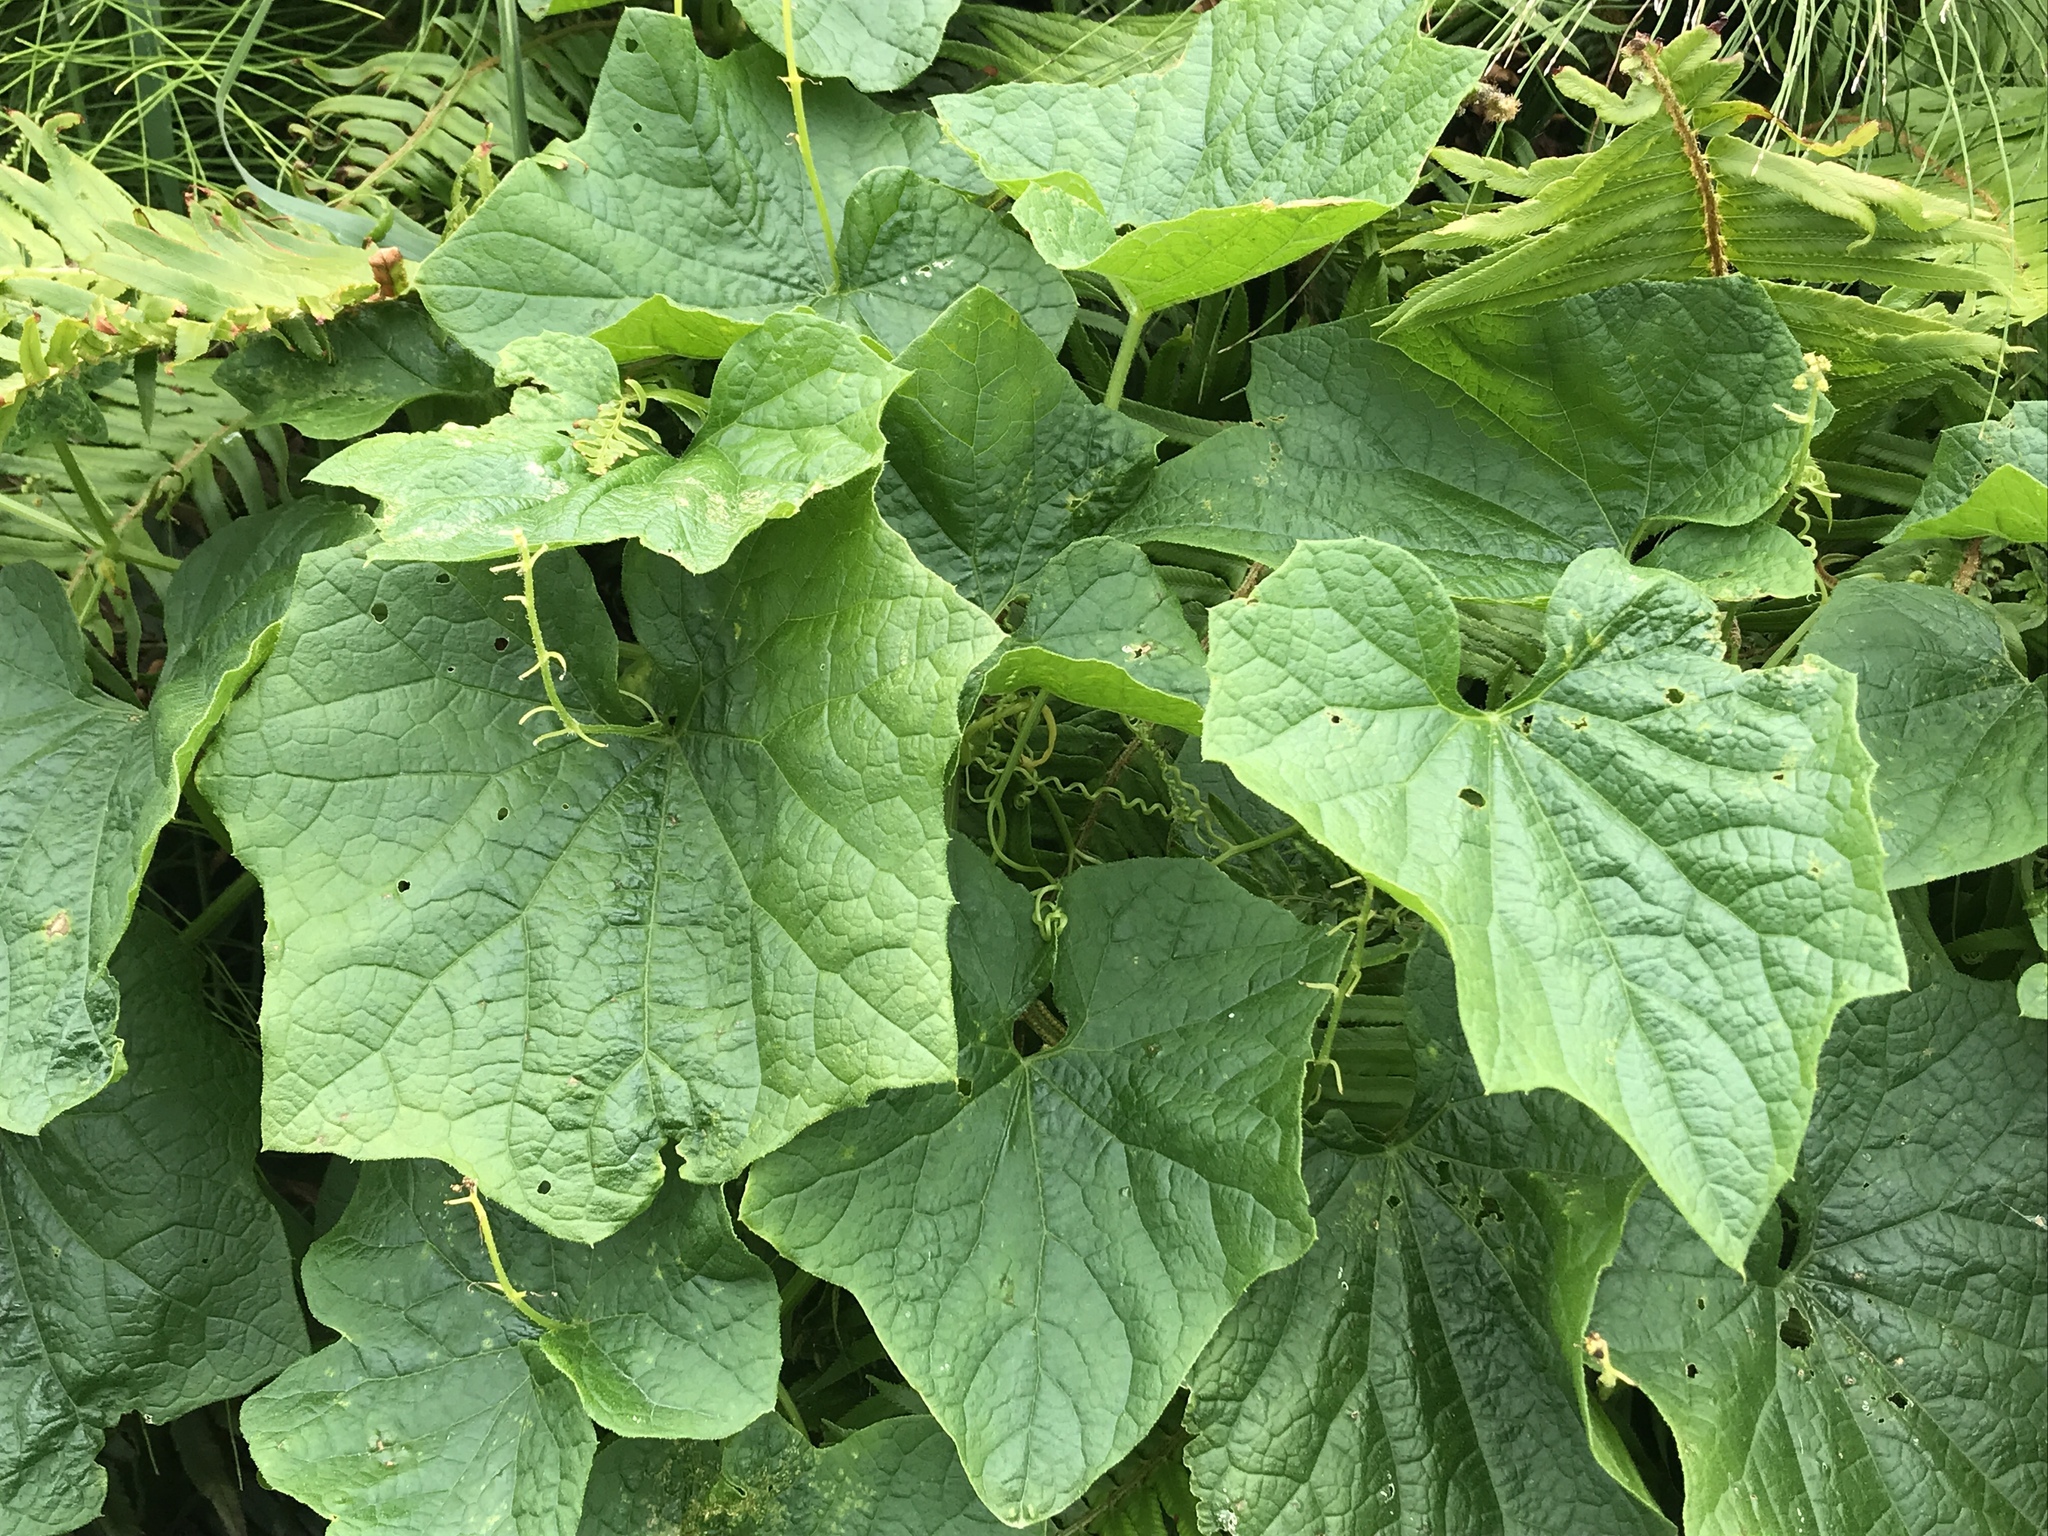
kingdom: Plantae
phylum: Tracheophyta
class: Magnoliopsida
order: Cucurbitales
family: Cucurbitaceae
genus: Marah
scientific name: Marah oregana
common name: Coastal manroot
